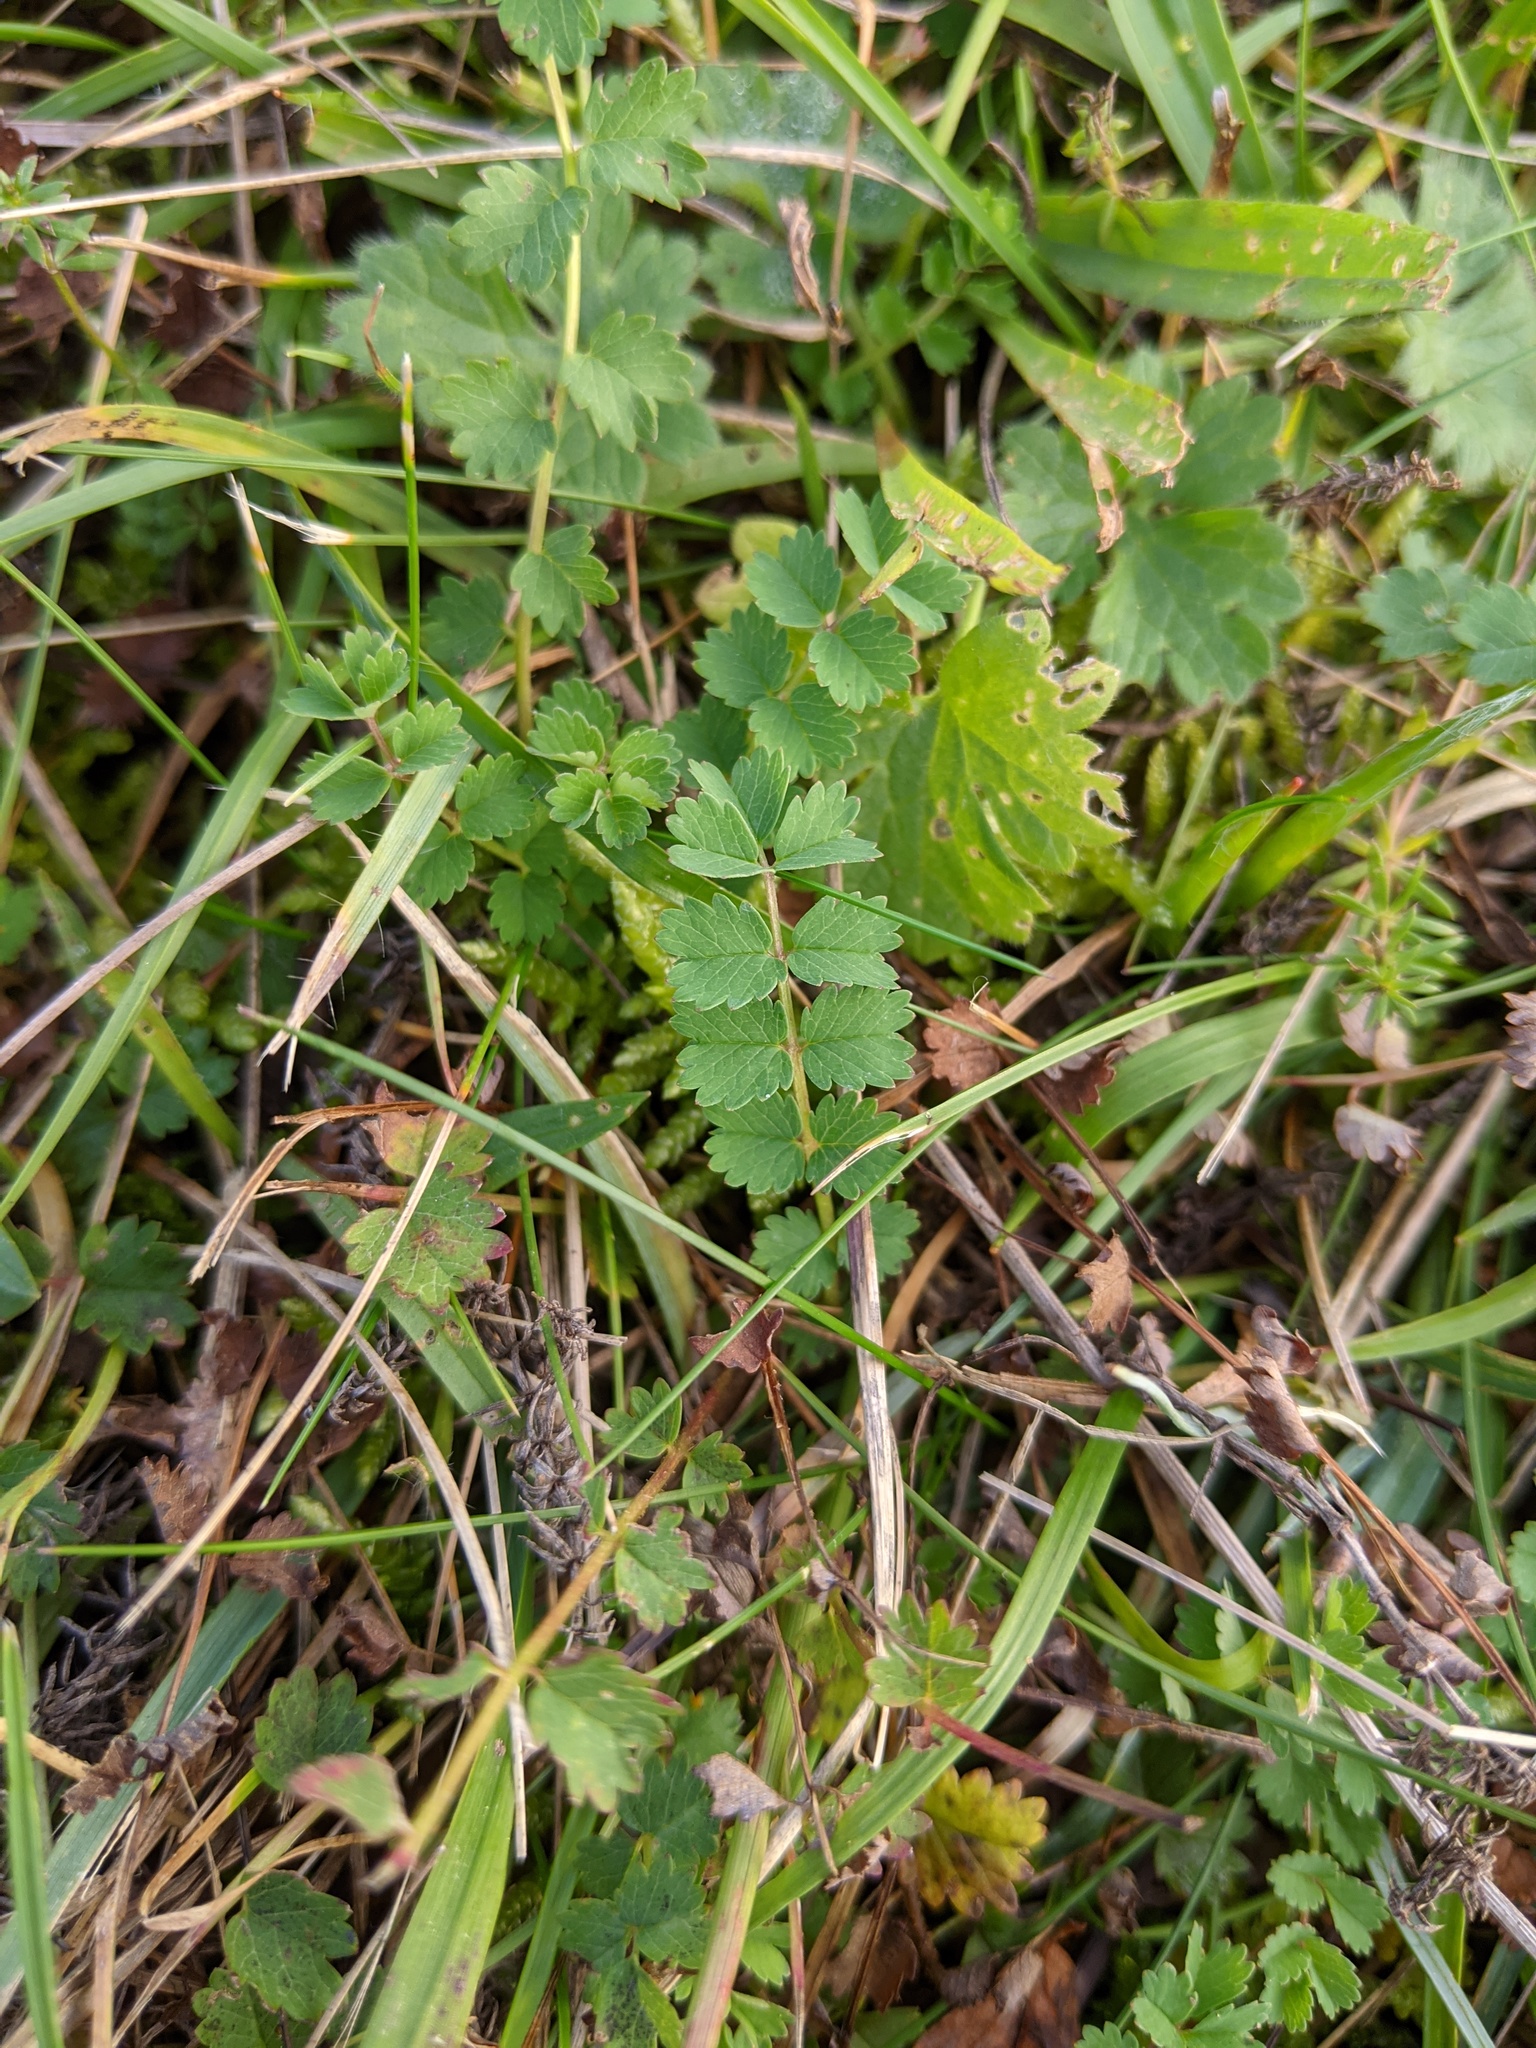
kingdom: Plantae
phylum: Tracheophyta
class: Magnoliopsida
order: Rosales
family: Rosaceae
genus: Poterium
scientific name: Poterium sanguisorba
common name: Salad burnet
